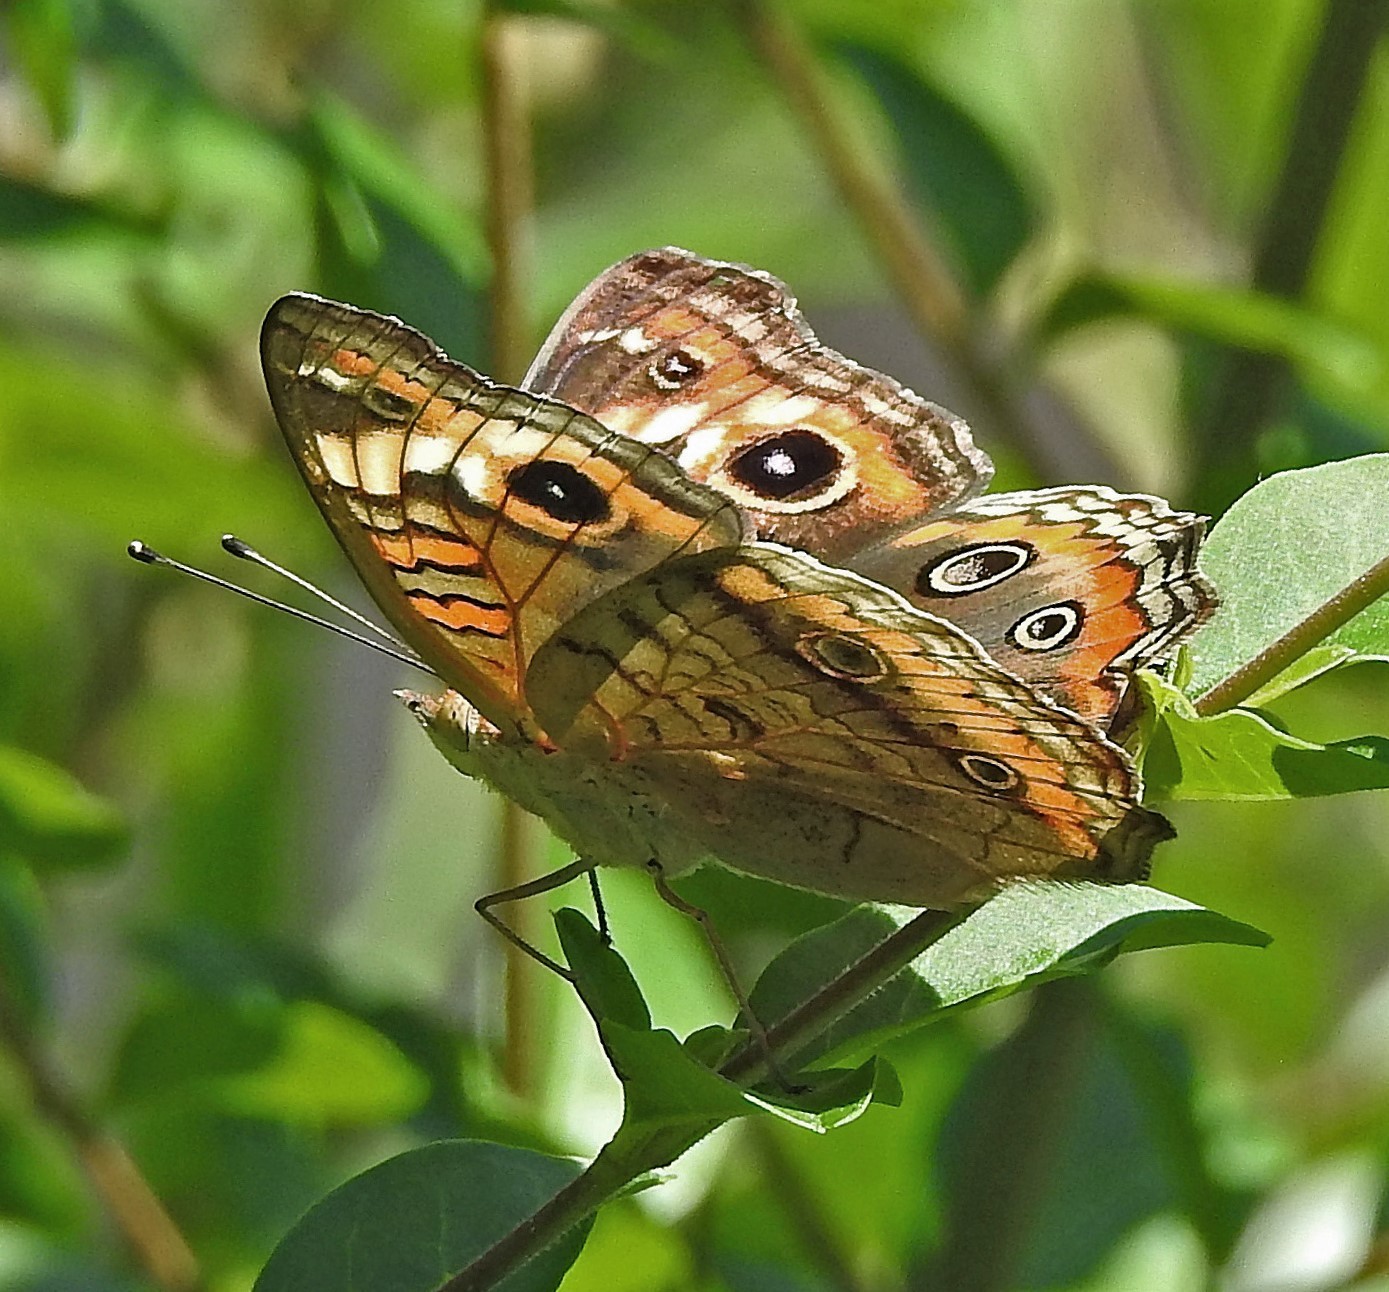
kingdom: Animalia
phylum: Arthropoda
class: Insecta
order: Lepidoptera
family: Nymphalidae
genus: Junonia
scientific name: Junonia lavinia
